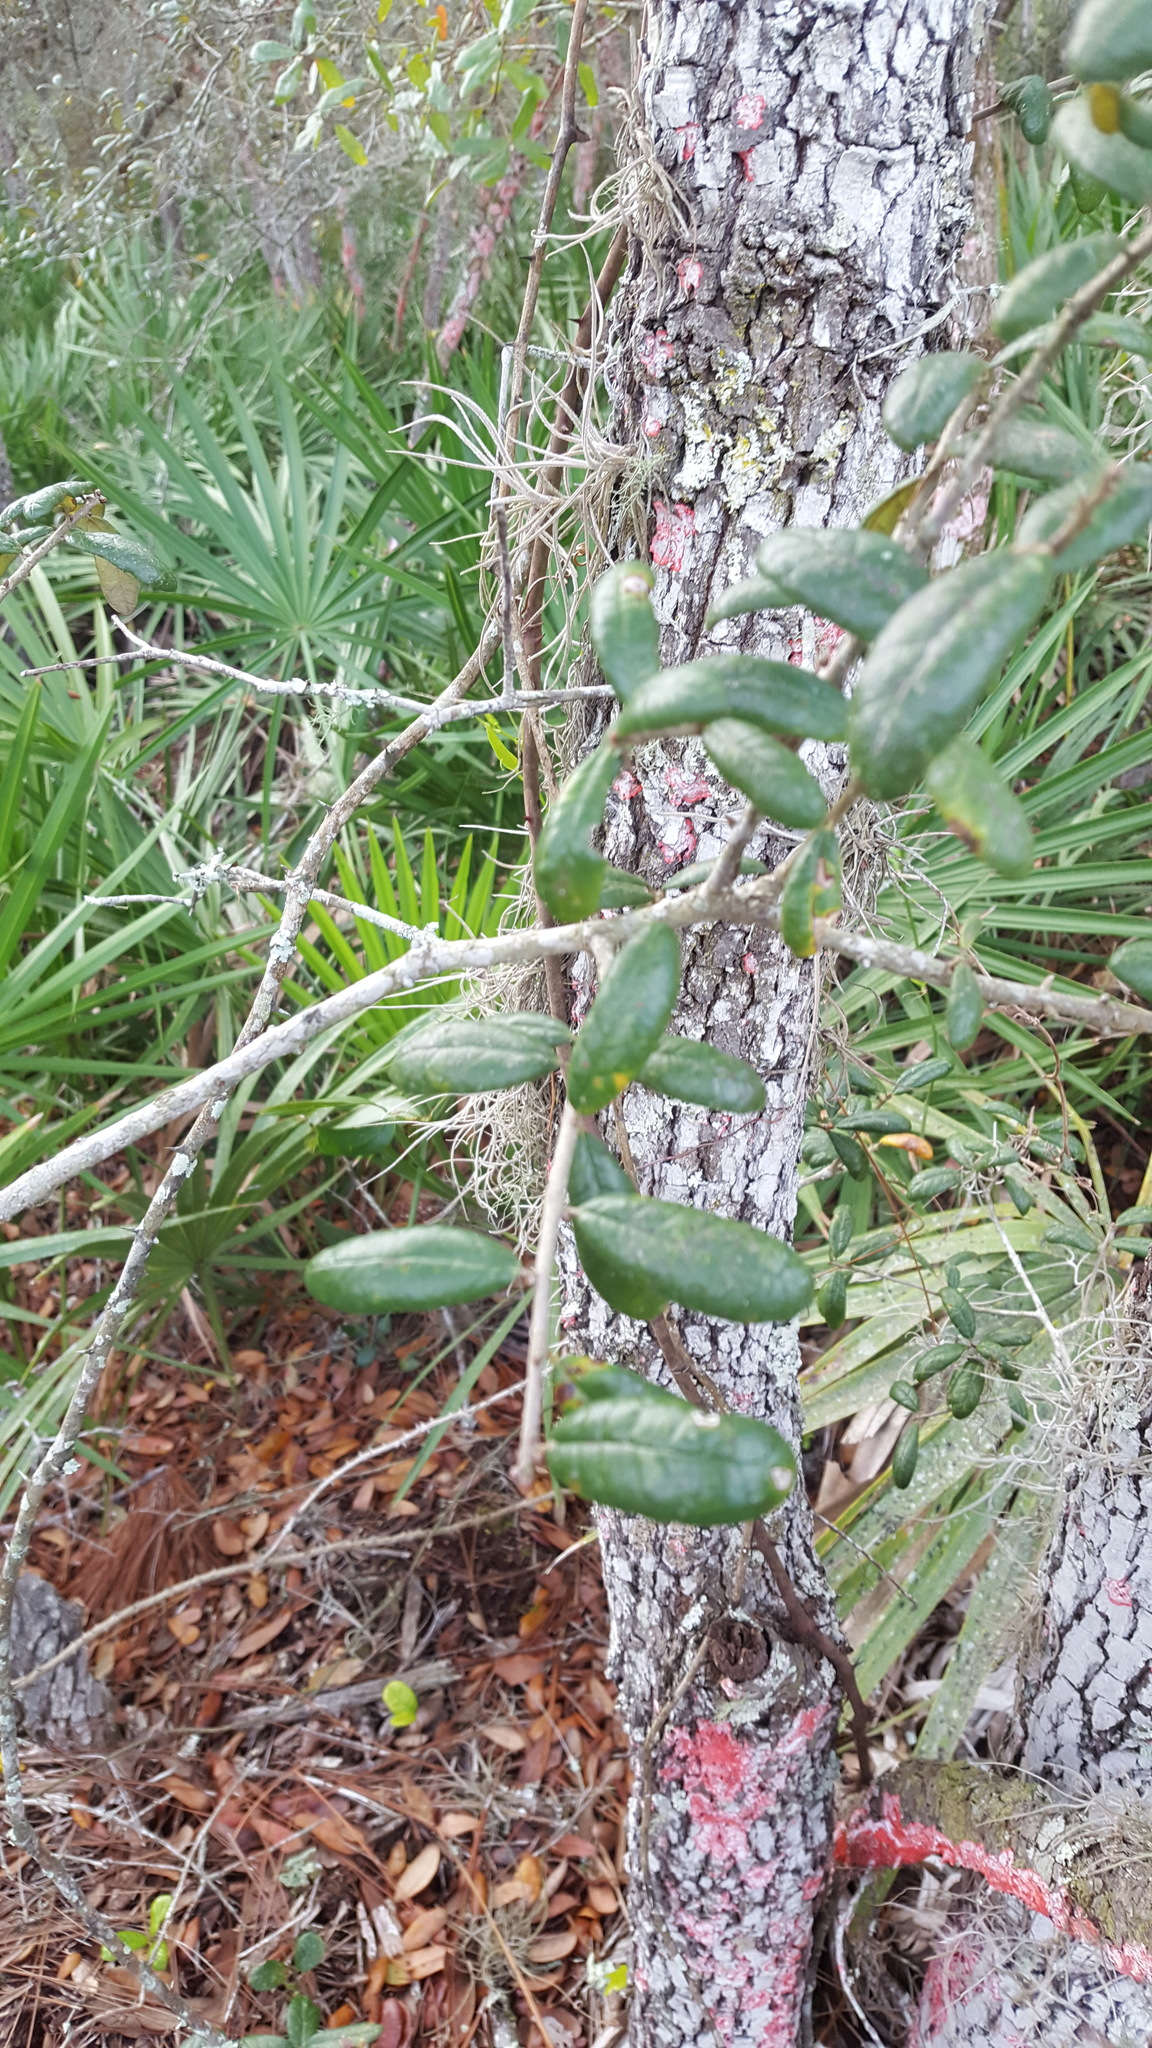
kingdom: Plantae
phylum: Tracheophyta
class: Magnoliopsida
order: Fagales
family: Fagaceae
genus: Quercus
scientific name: Quercus geminata
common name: Sand live oak
